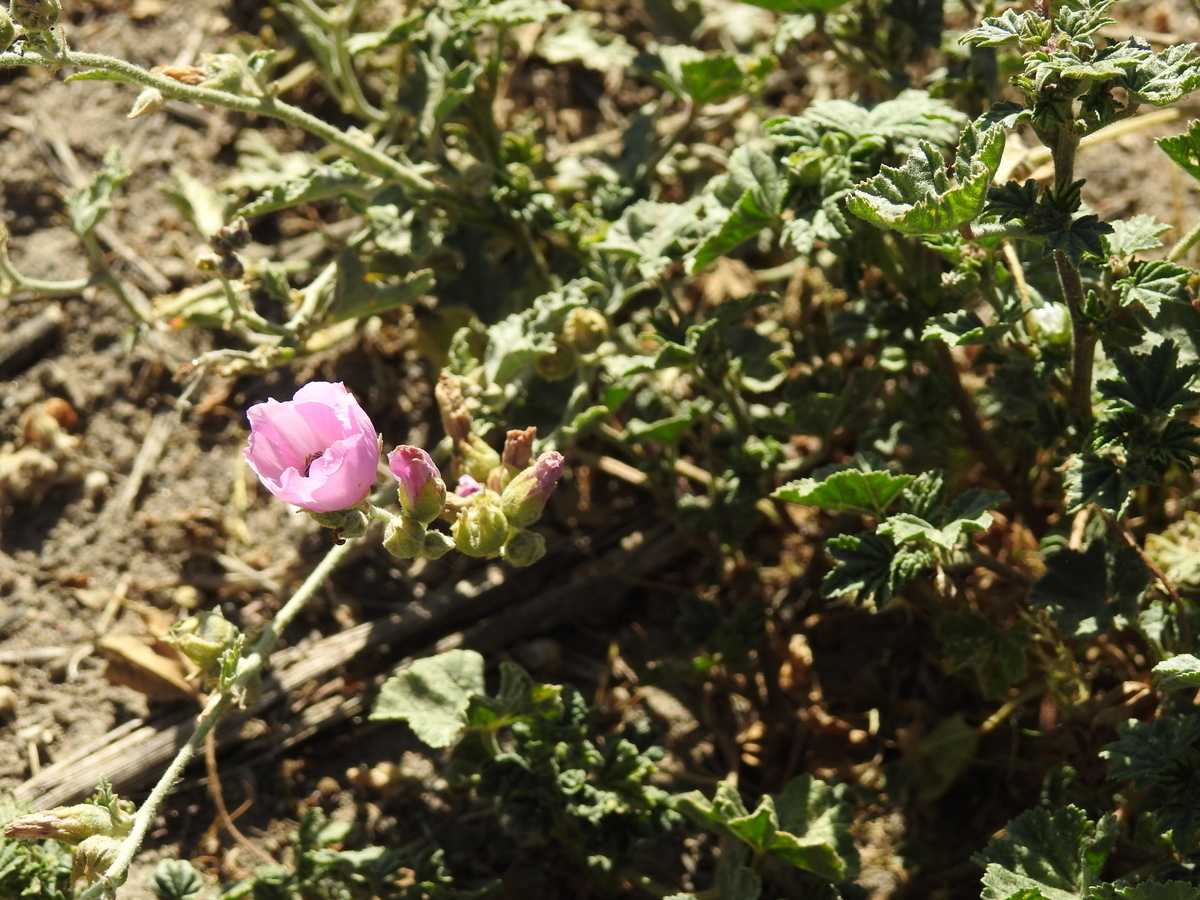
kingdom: Plantae
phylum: Tracheophyta
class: Magnoliopsida
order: Malvales
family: Malvaceae
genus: Sphaeralcea
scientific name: Sphaeralcea mendocina
